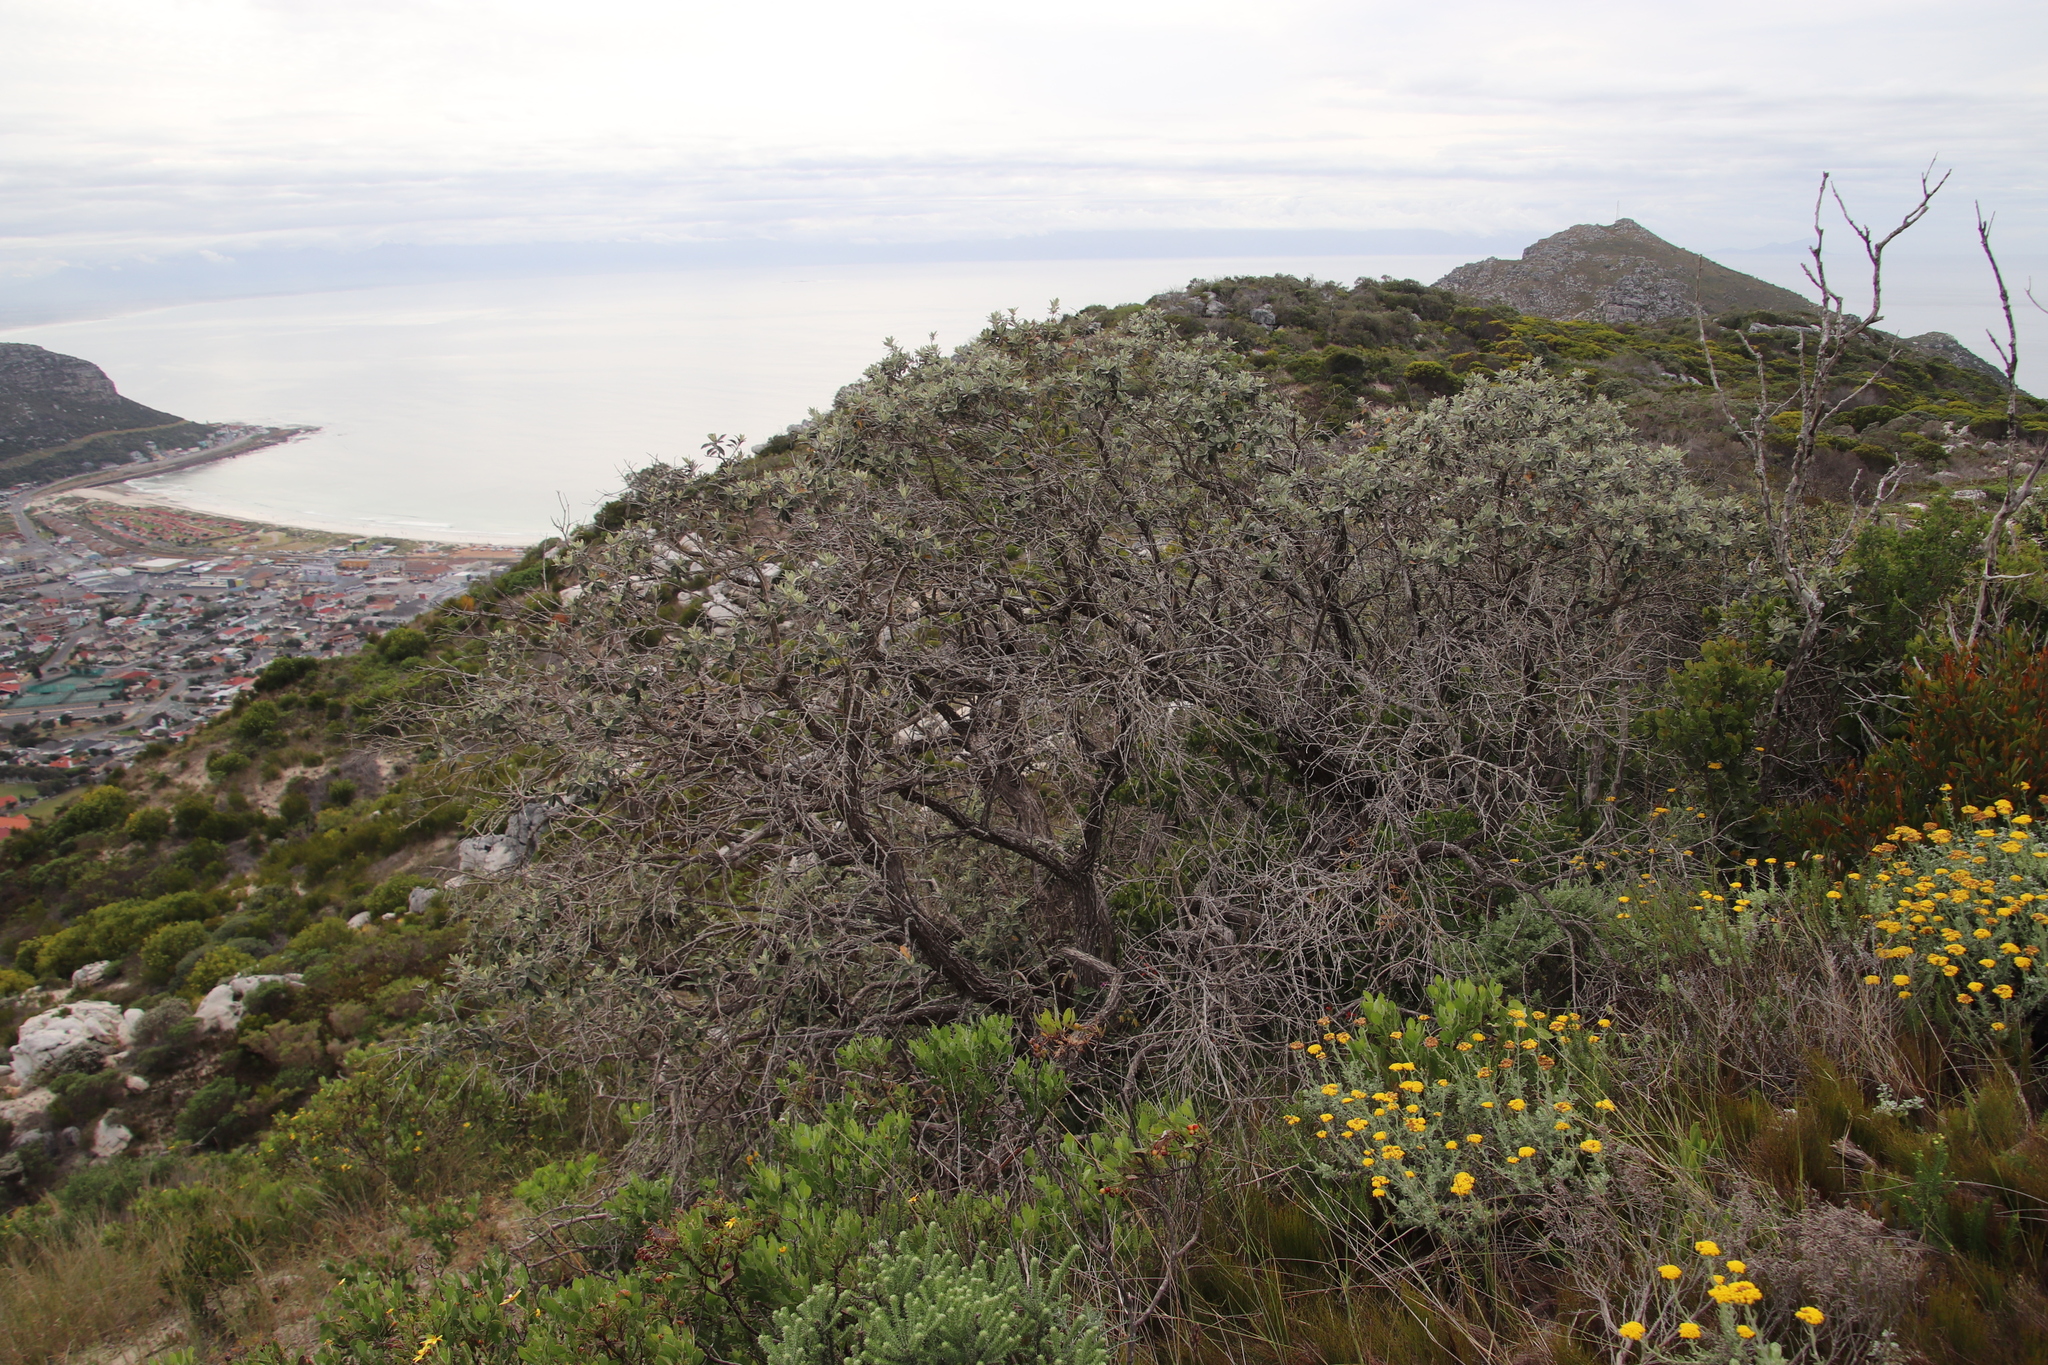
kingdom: Plantae
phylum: Tracheophyta
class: Magnoliopsida
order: Asterales
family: Asteraceae
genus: Tarchonanthus
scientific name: Tarchonanthus littoralis
